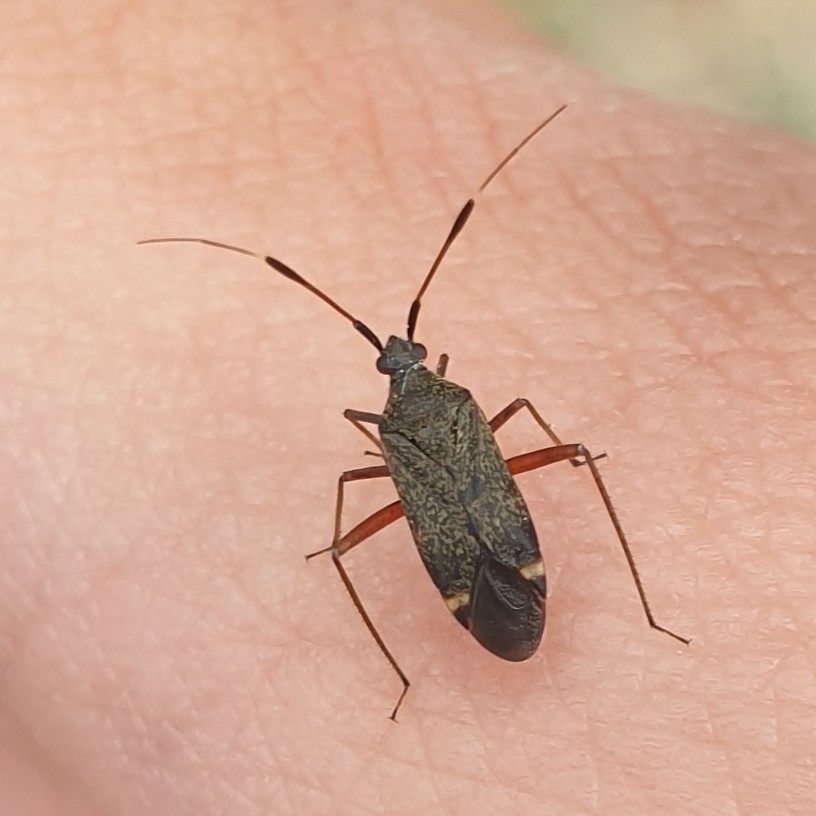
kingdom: Animalia
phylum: Arthropoda
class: Insecta
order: Hemiptera
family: Miridae
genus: Closterotomus
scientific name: Closterotomus biclavatus
